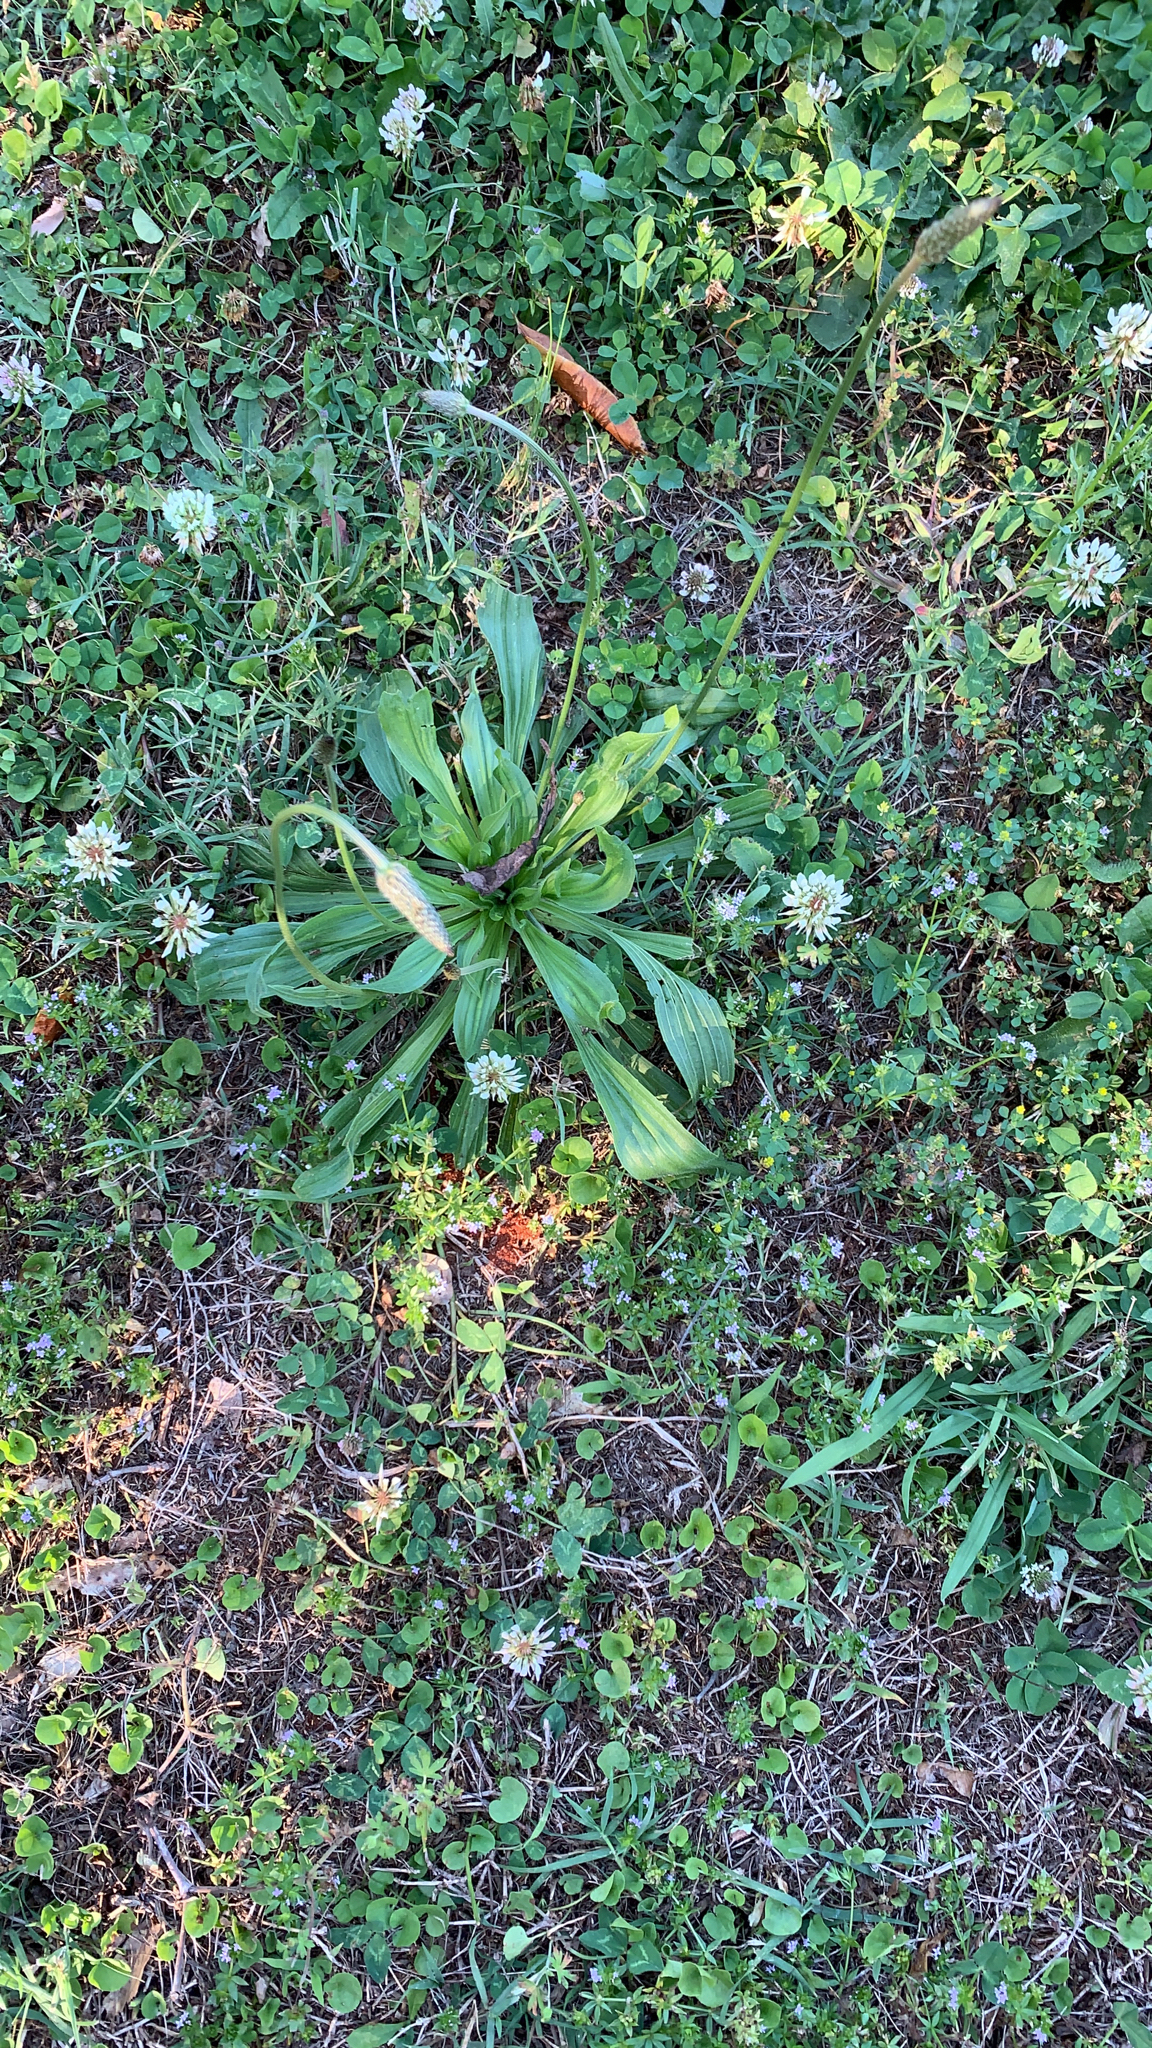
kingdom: Plantae
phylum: Tracheophyta
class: Magnoliopsida
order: Lamiales
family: Plantaginaceae
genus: Plantago
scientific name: Plantago lanceolata
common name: Ribwort plantain
